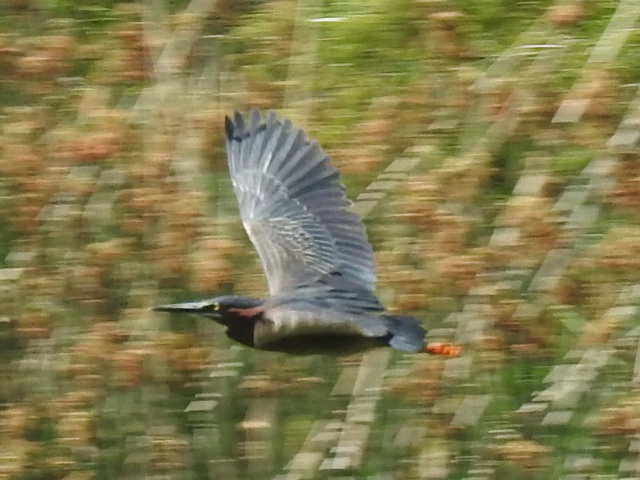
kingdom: Animalia
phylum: Chordata
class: Aves
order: Pelecaniformes
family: Ardeidae
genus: Butorides
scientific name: Butorides virescens
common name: Green heron
